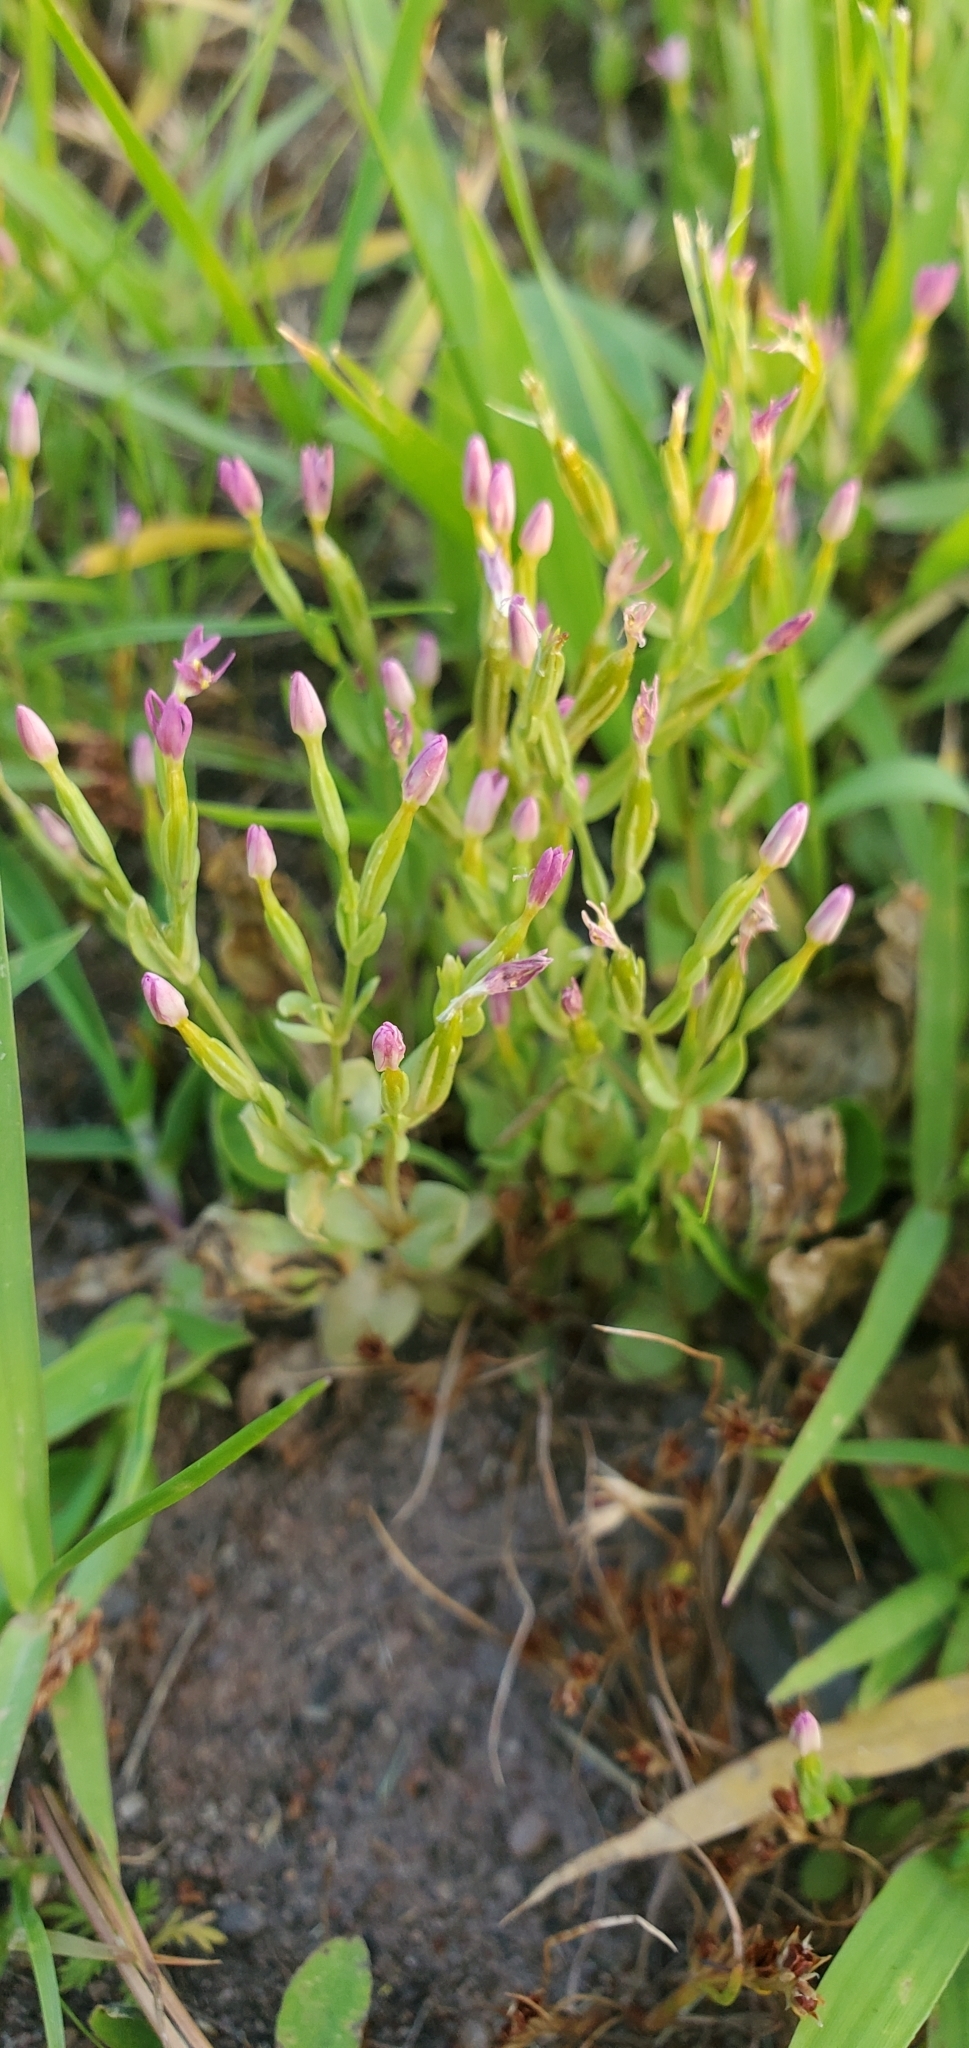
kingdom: Plantae
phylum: Tracheophyta
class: Magnoliopsida
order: Gentianales
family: Gentianaceae
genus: Centaurium
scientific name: Centaurium pulchellum
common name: Lesser centaury
